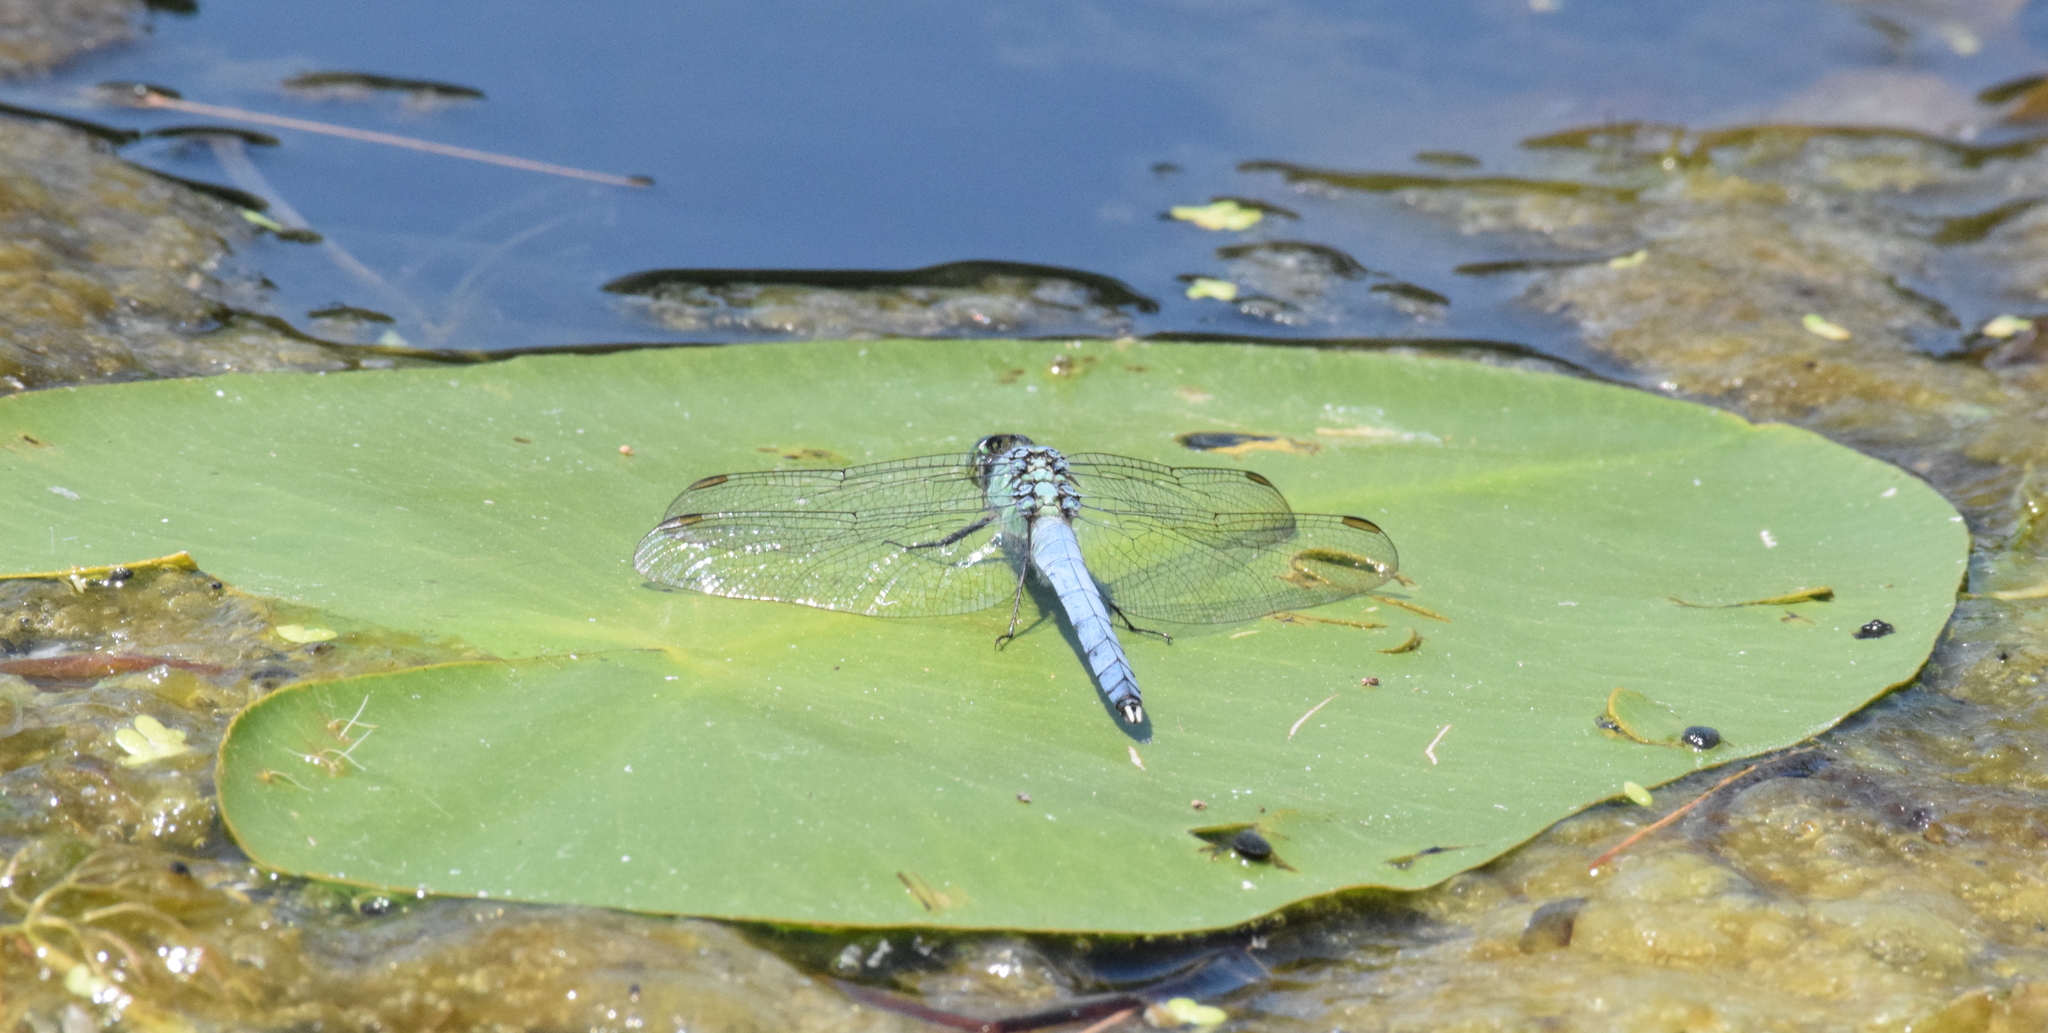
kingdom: Animalia
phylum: Arthropoda
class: Insecta
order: Odonata
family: Libellulidae
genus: Erythemis
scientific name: Erythemis simplicicollis
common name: Eastern pondhawk
